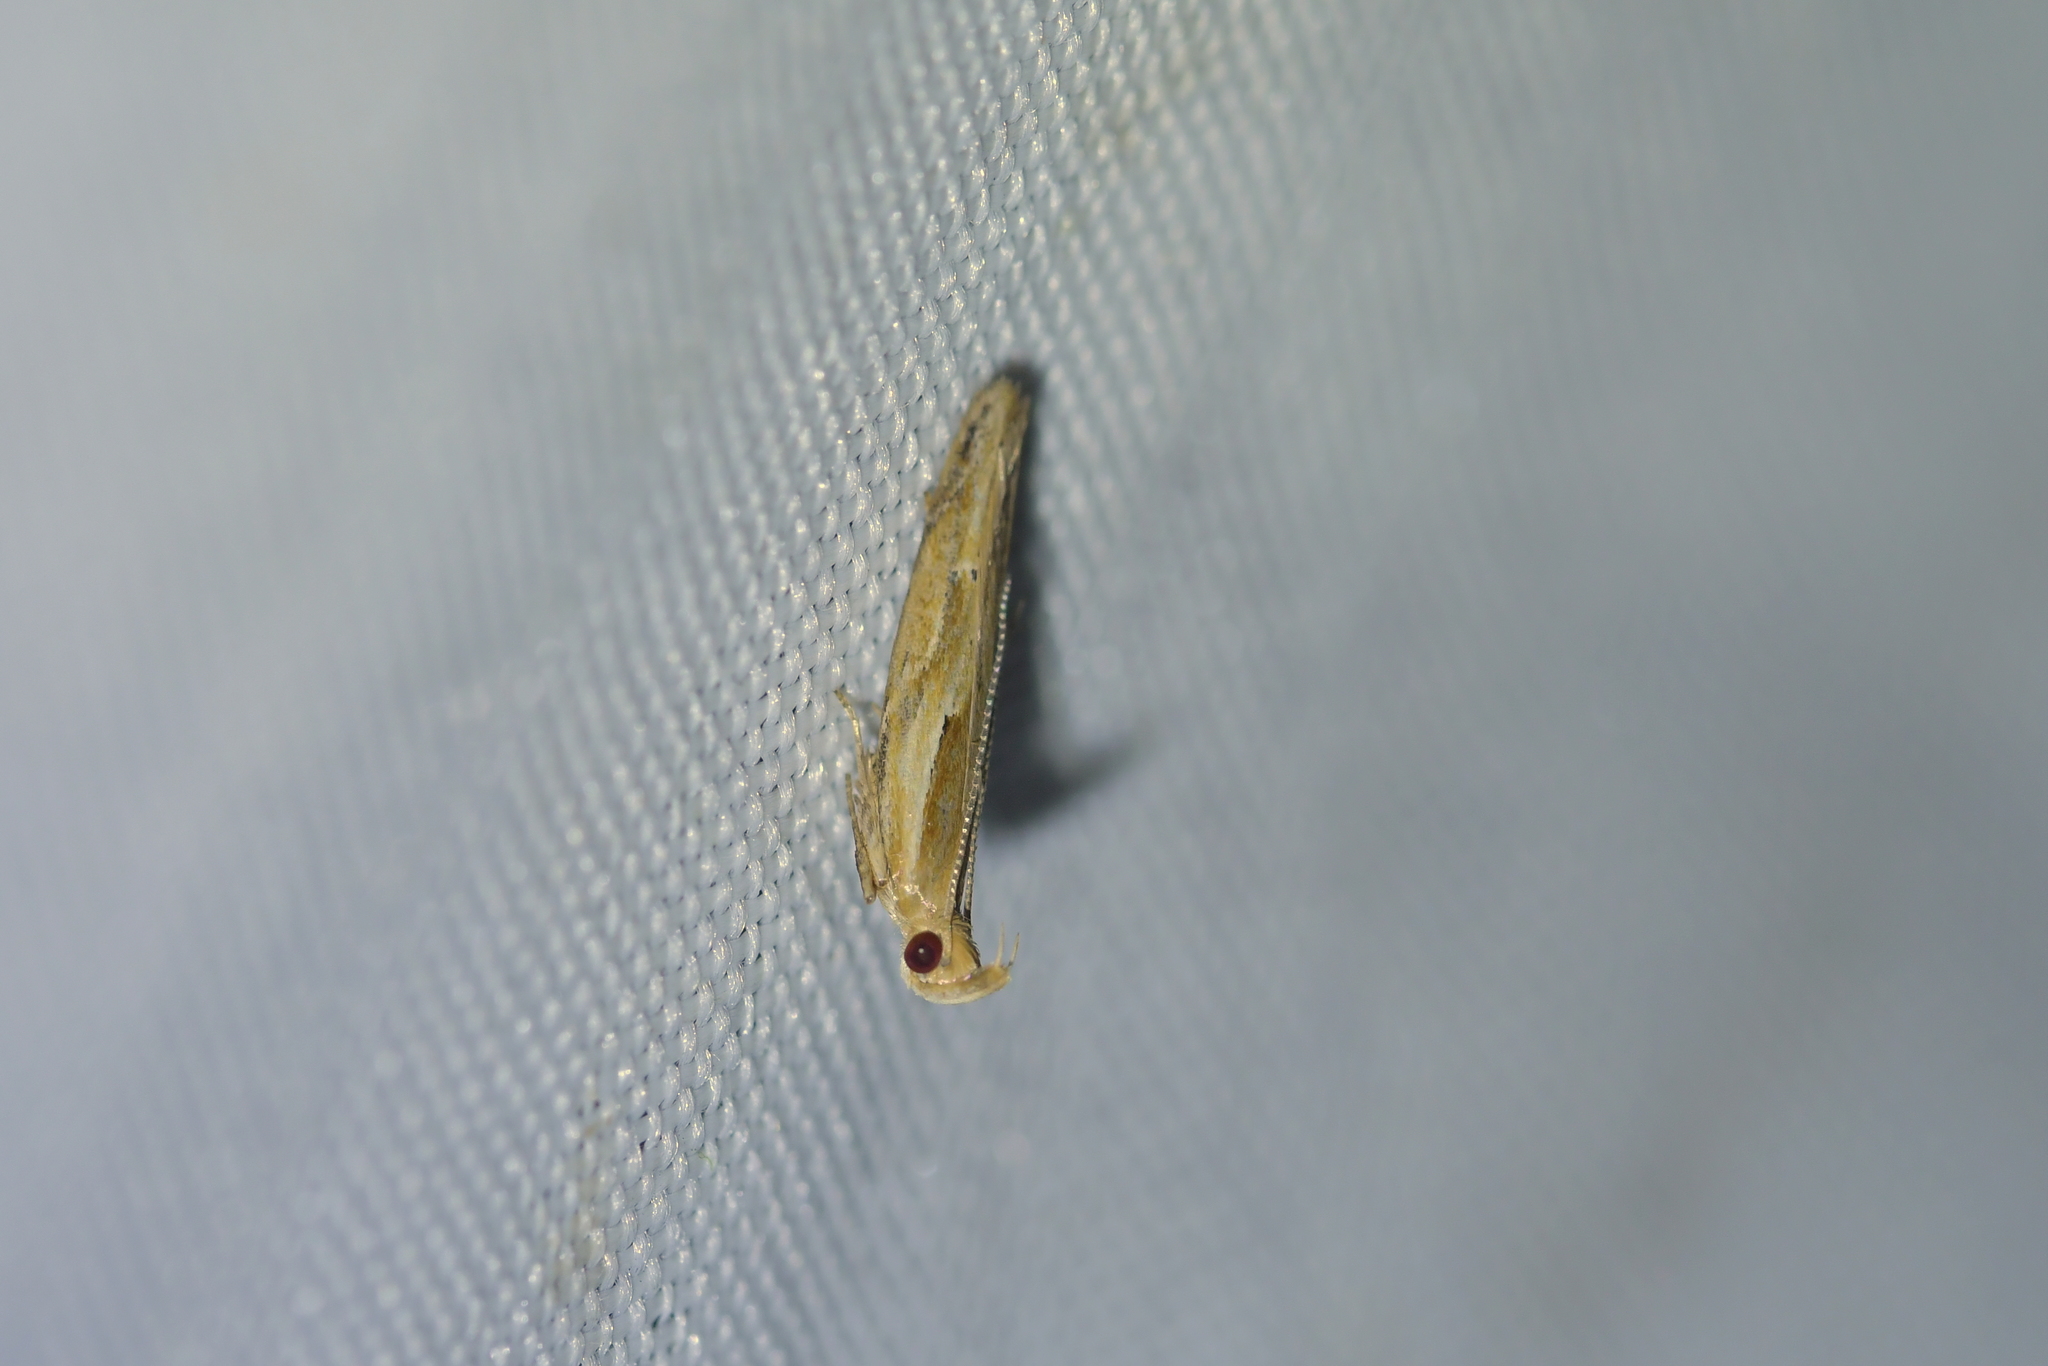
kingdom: Animalia
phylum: Arthropoda
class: Insecta
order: Lepidoptera
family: Depressariidae
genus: Eutorna
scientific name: Eutorna symmorpha
